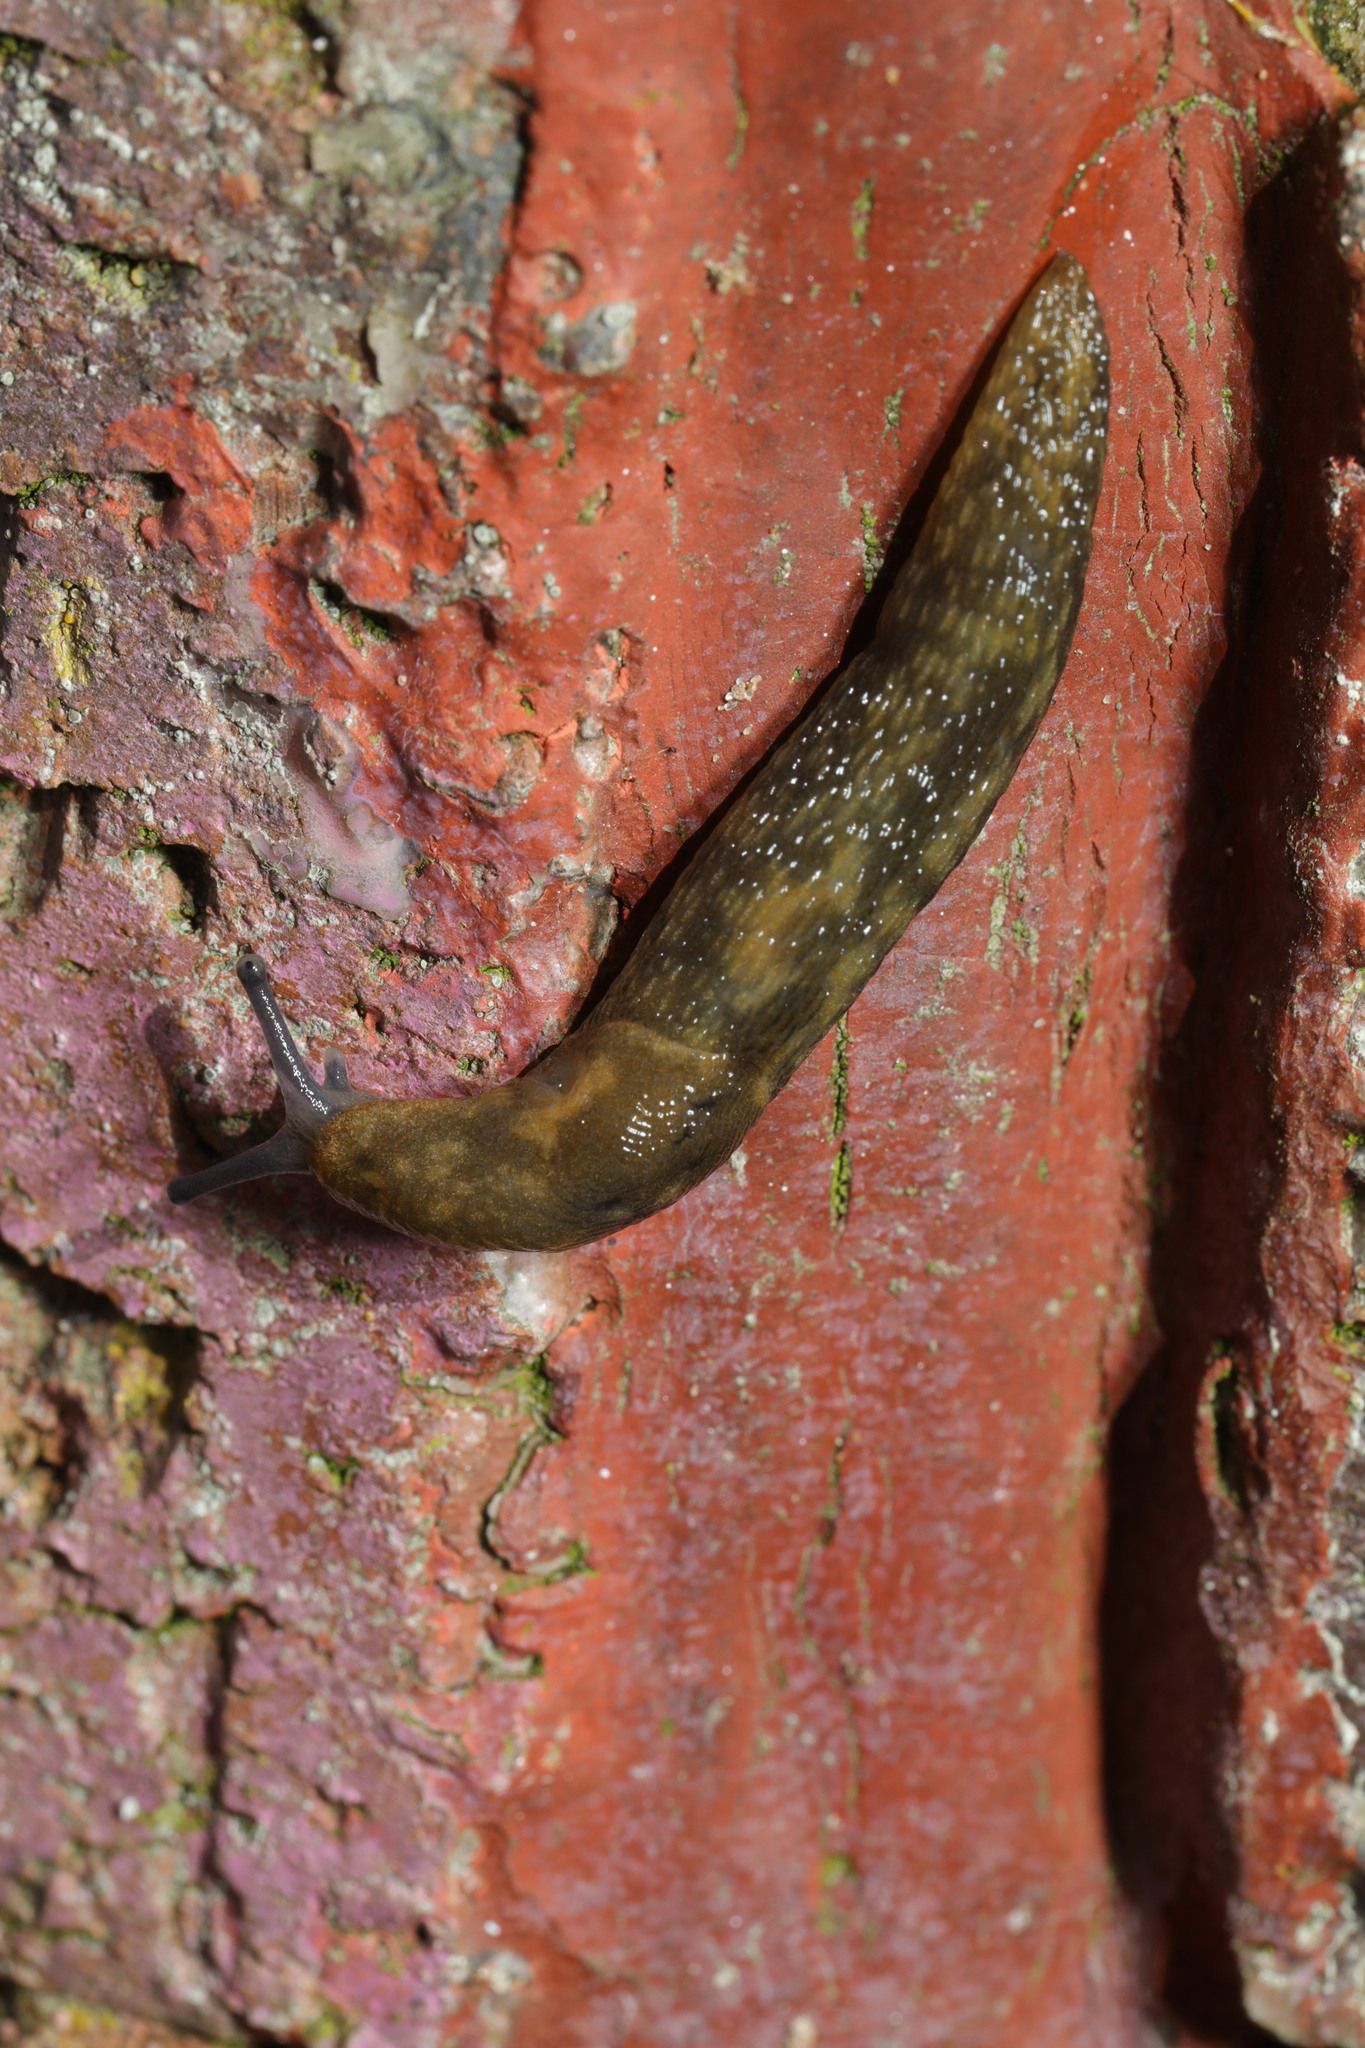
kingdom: Animalia
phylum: Mollusca
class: Gastropoda
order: Stylommatophora
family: Limacidae
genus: Limacus
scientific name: Limacus maculatus
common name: Irish yellow slug
